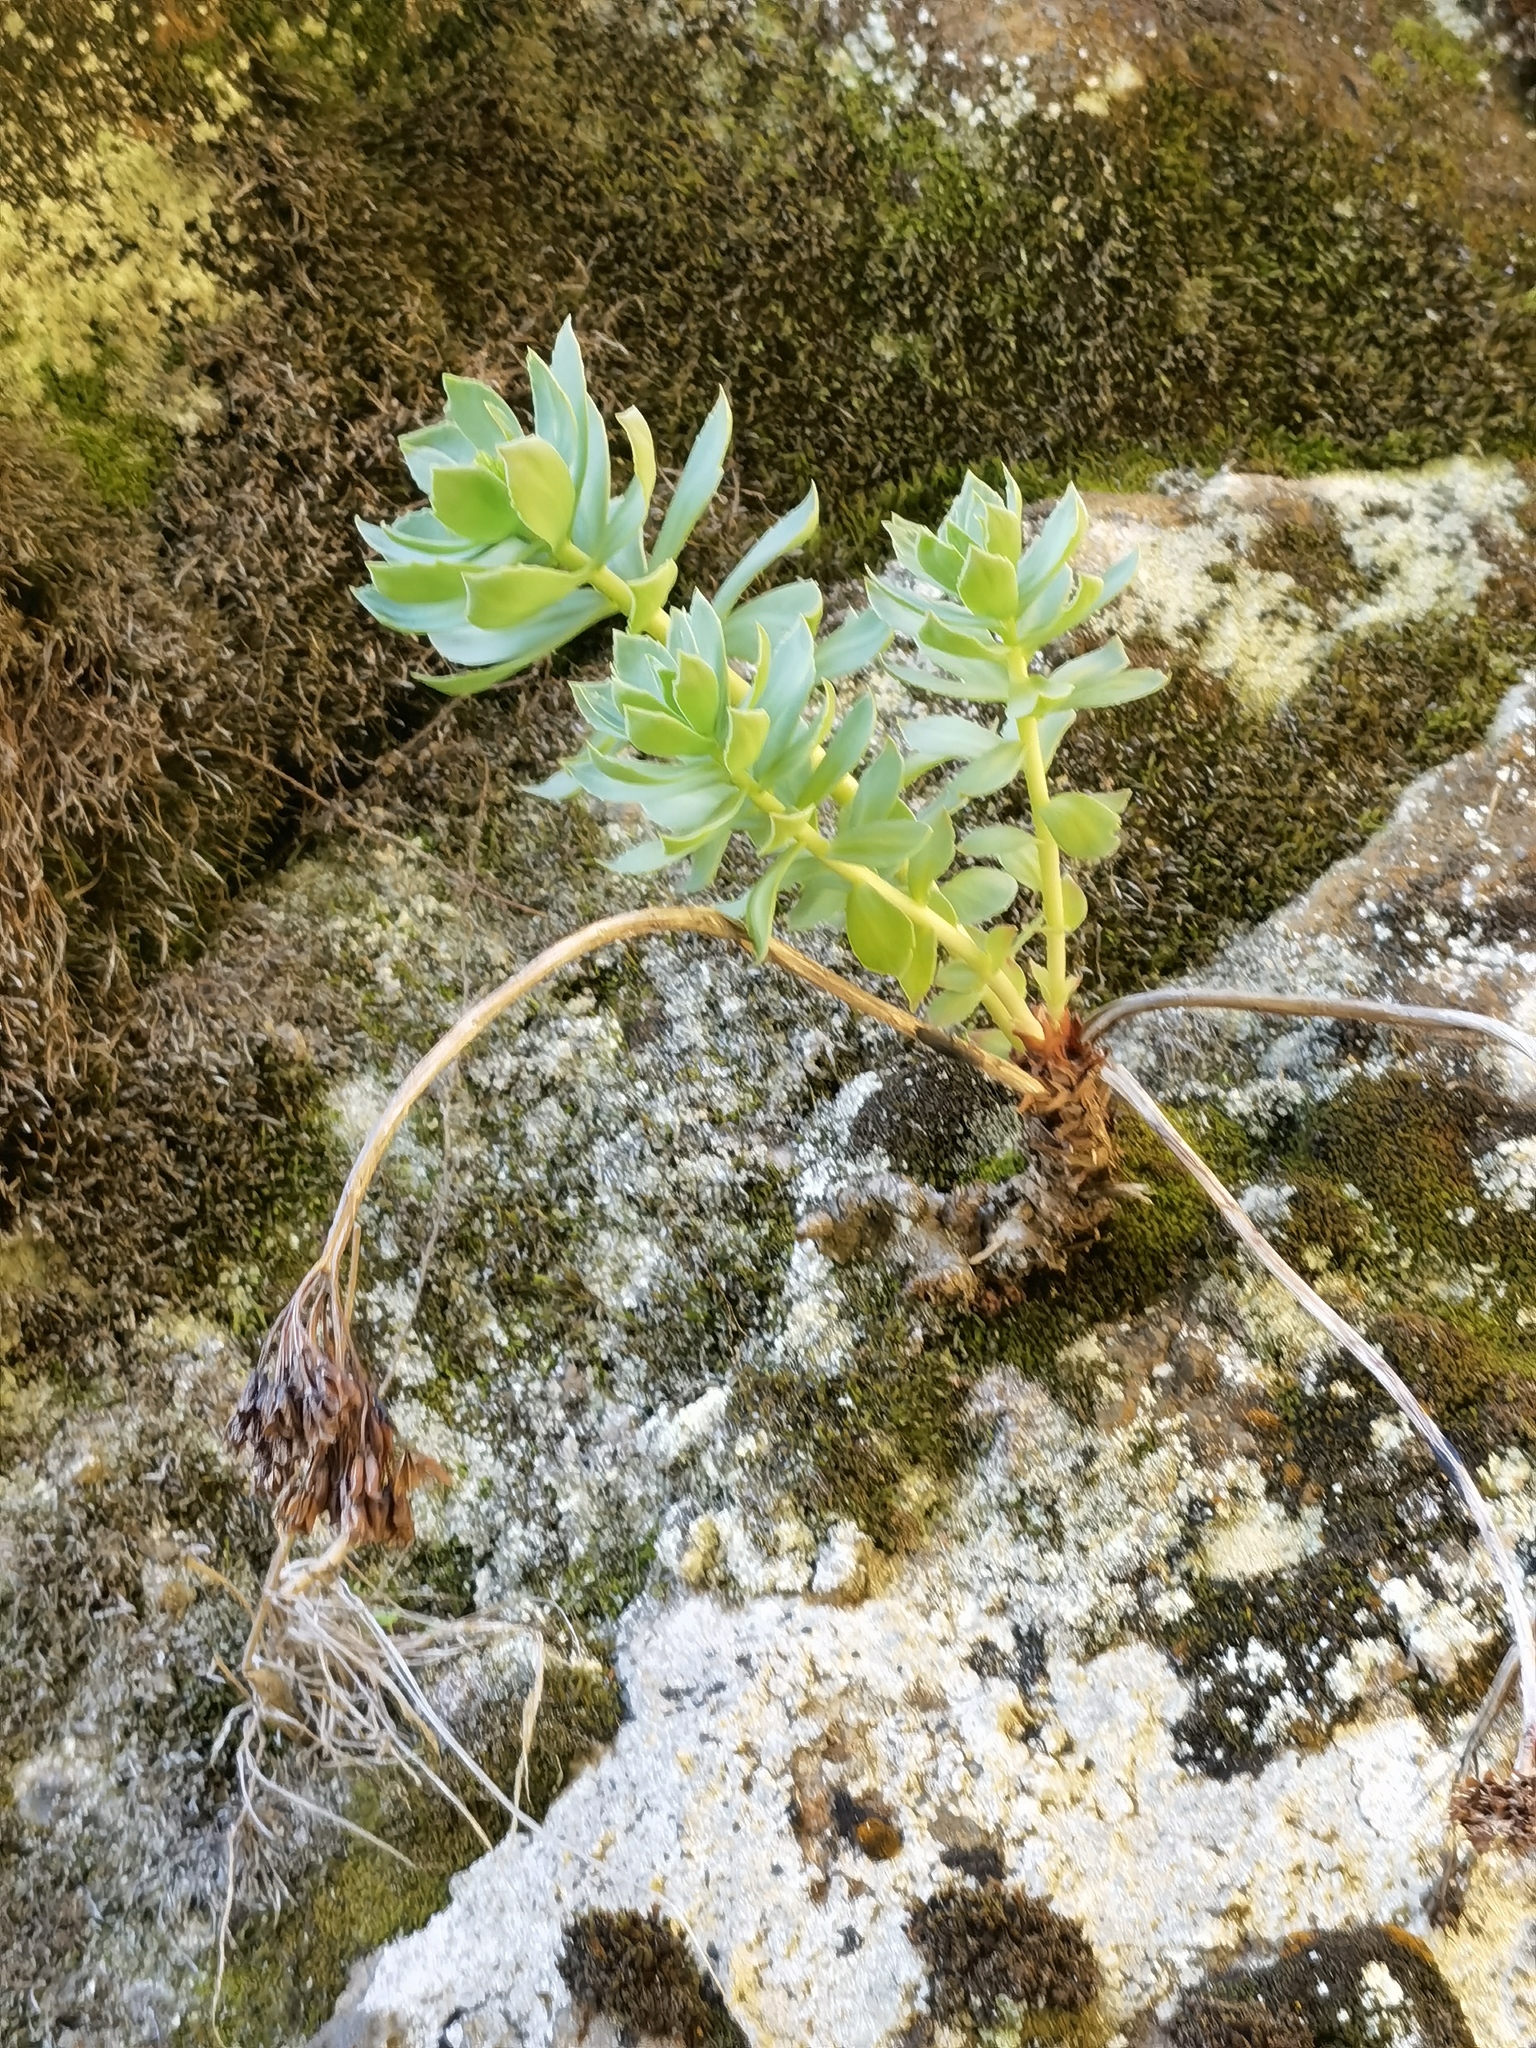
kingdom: Plantae
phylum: Tracheophyta
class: Magnoliopsida
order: Saxifragales
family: Crassulaceae
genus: Rhodiola
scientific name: Rhodiola rosea
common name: Roseroot
